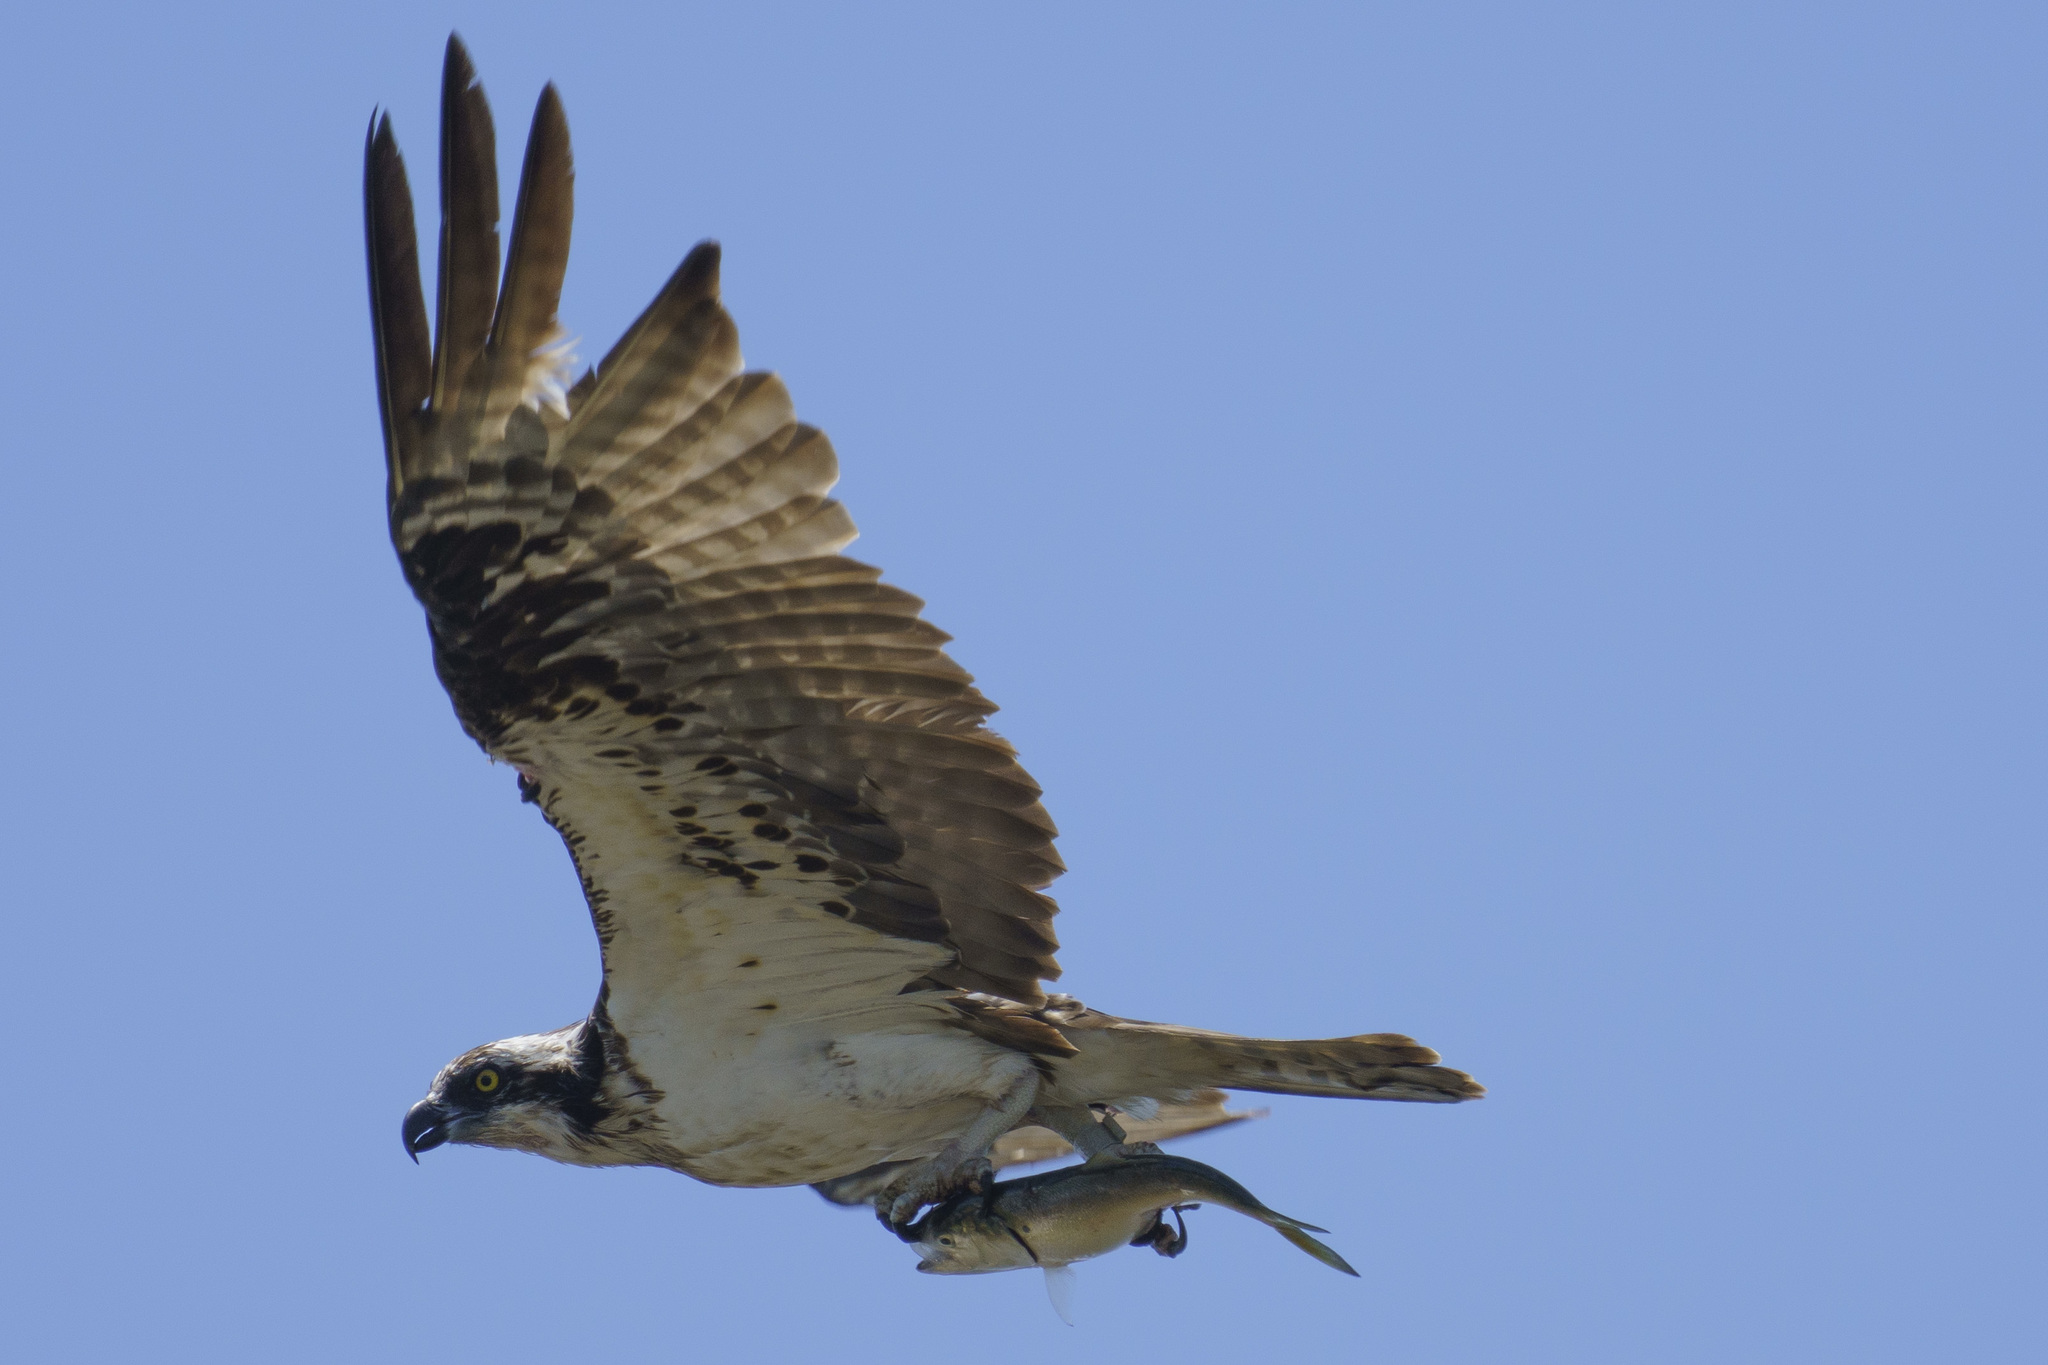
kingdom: Animalia
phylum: Chordata
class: Aves
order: Accipitriformes
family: Pandionidae
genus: Pandion
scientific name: Pandion haliaetus
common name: Osprey
